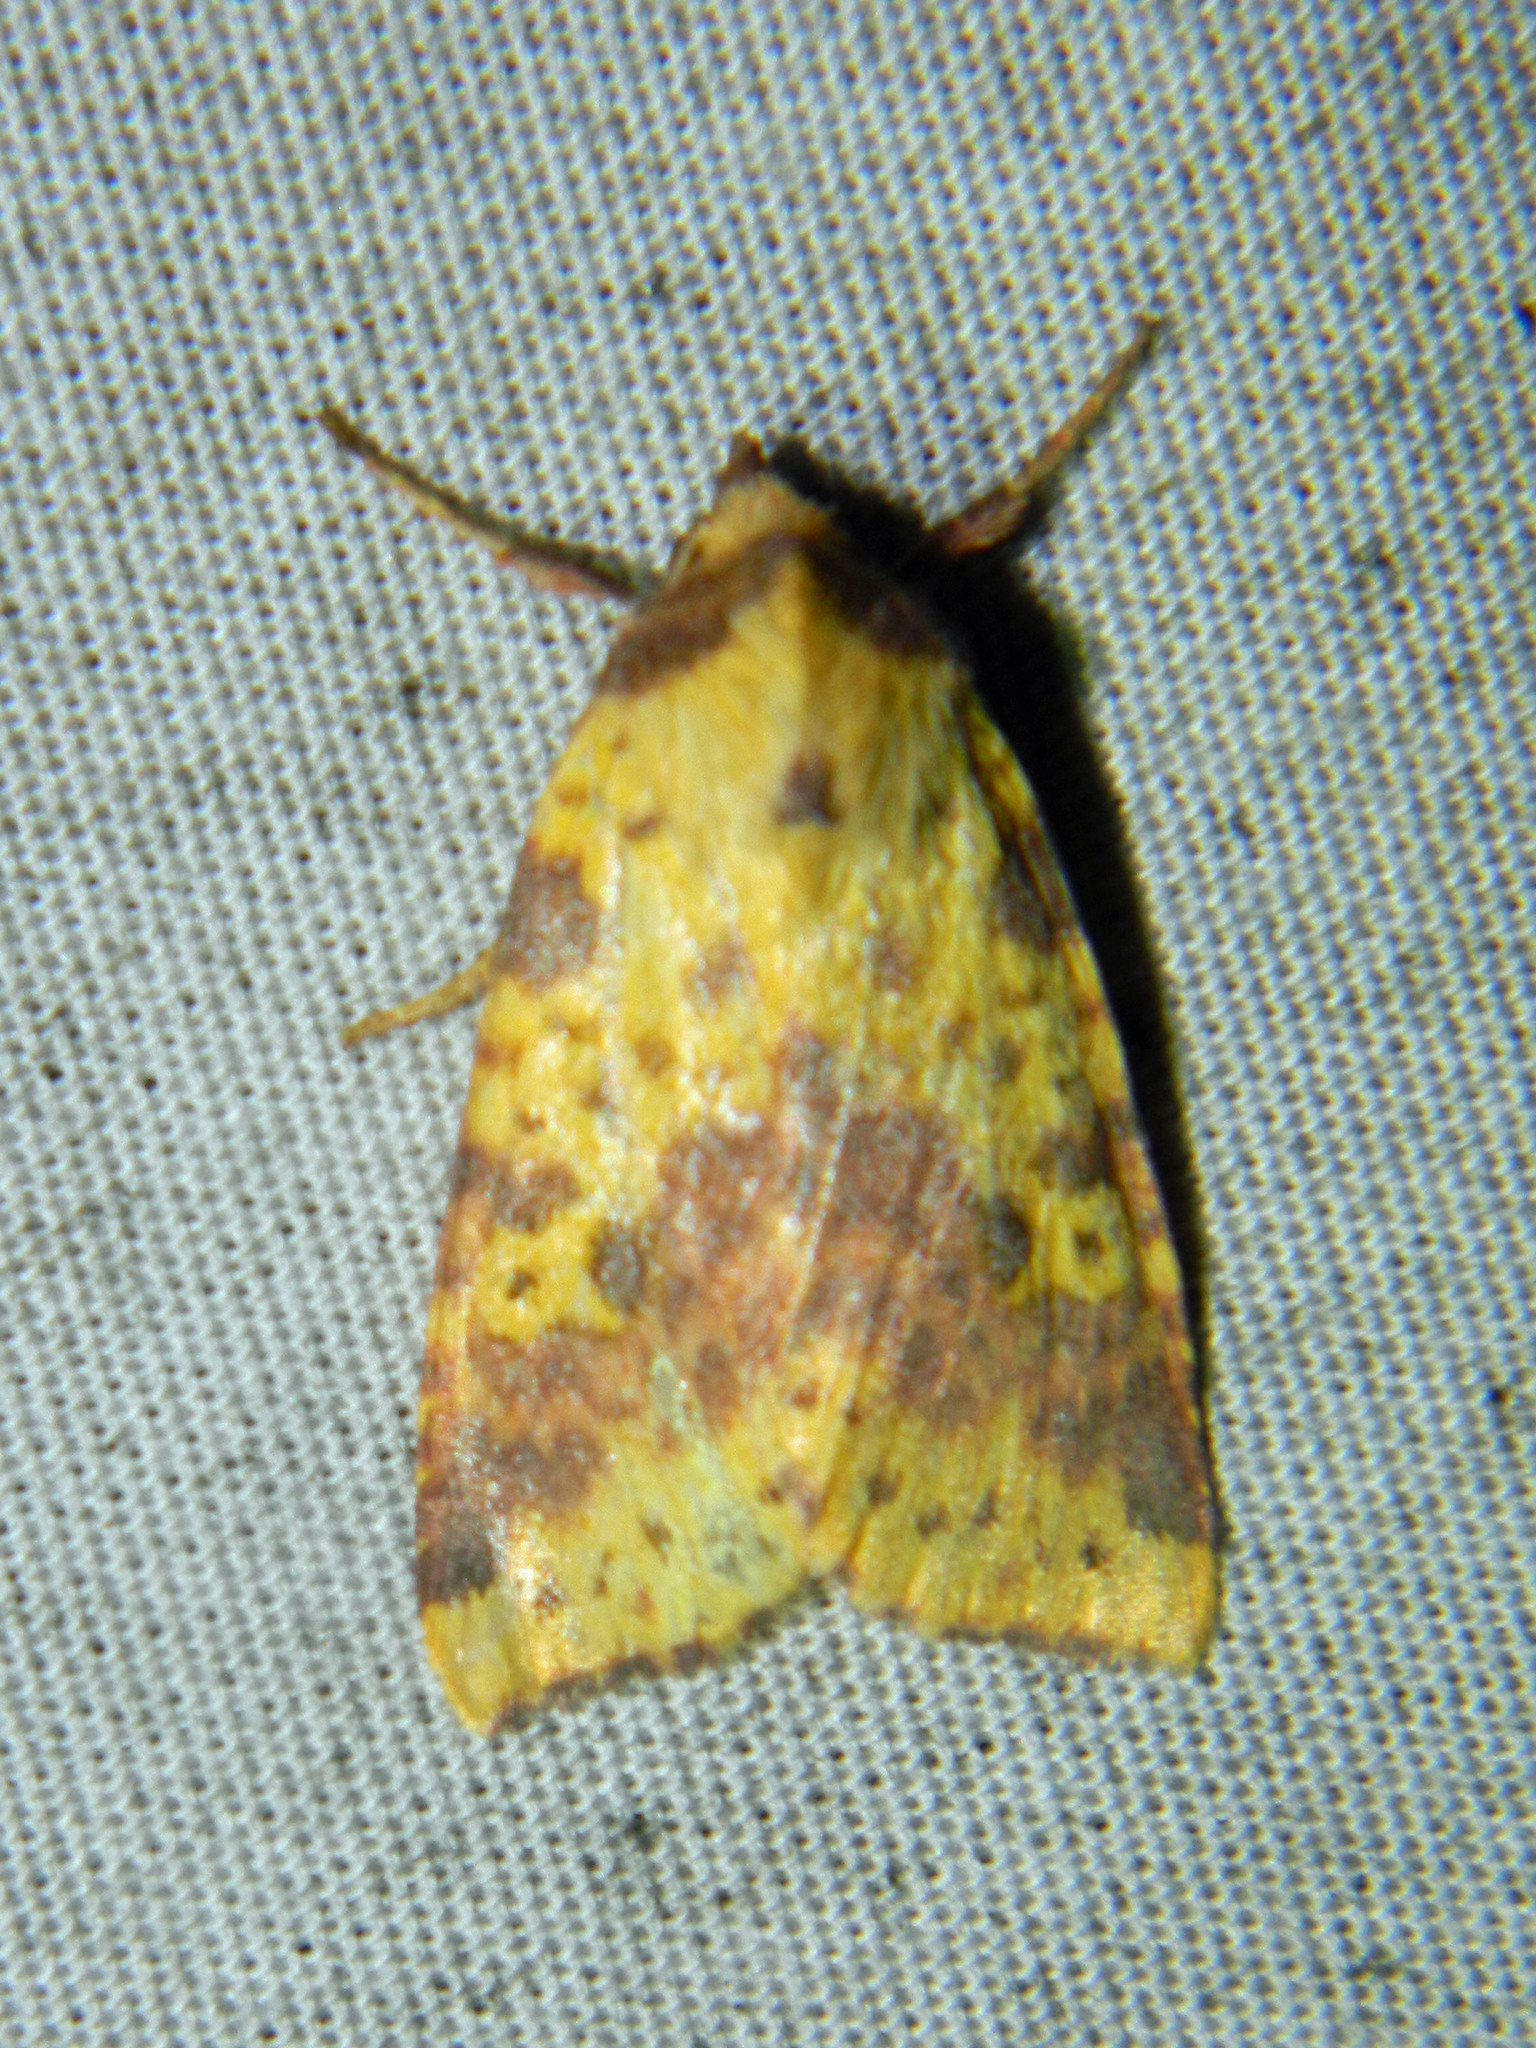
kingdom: Animalia
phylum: Arthropoda
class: Insecta
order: Lepidoptera
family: Noctuidae
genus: Xanthia
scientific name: Xanthia tatago
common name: Pink-banded sallow
